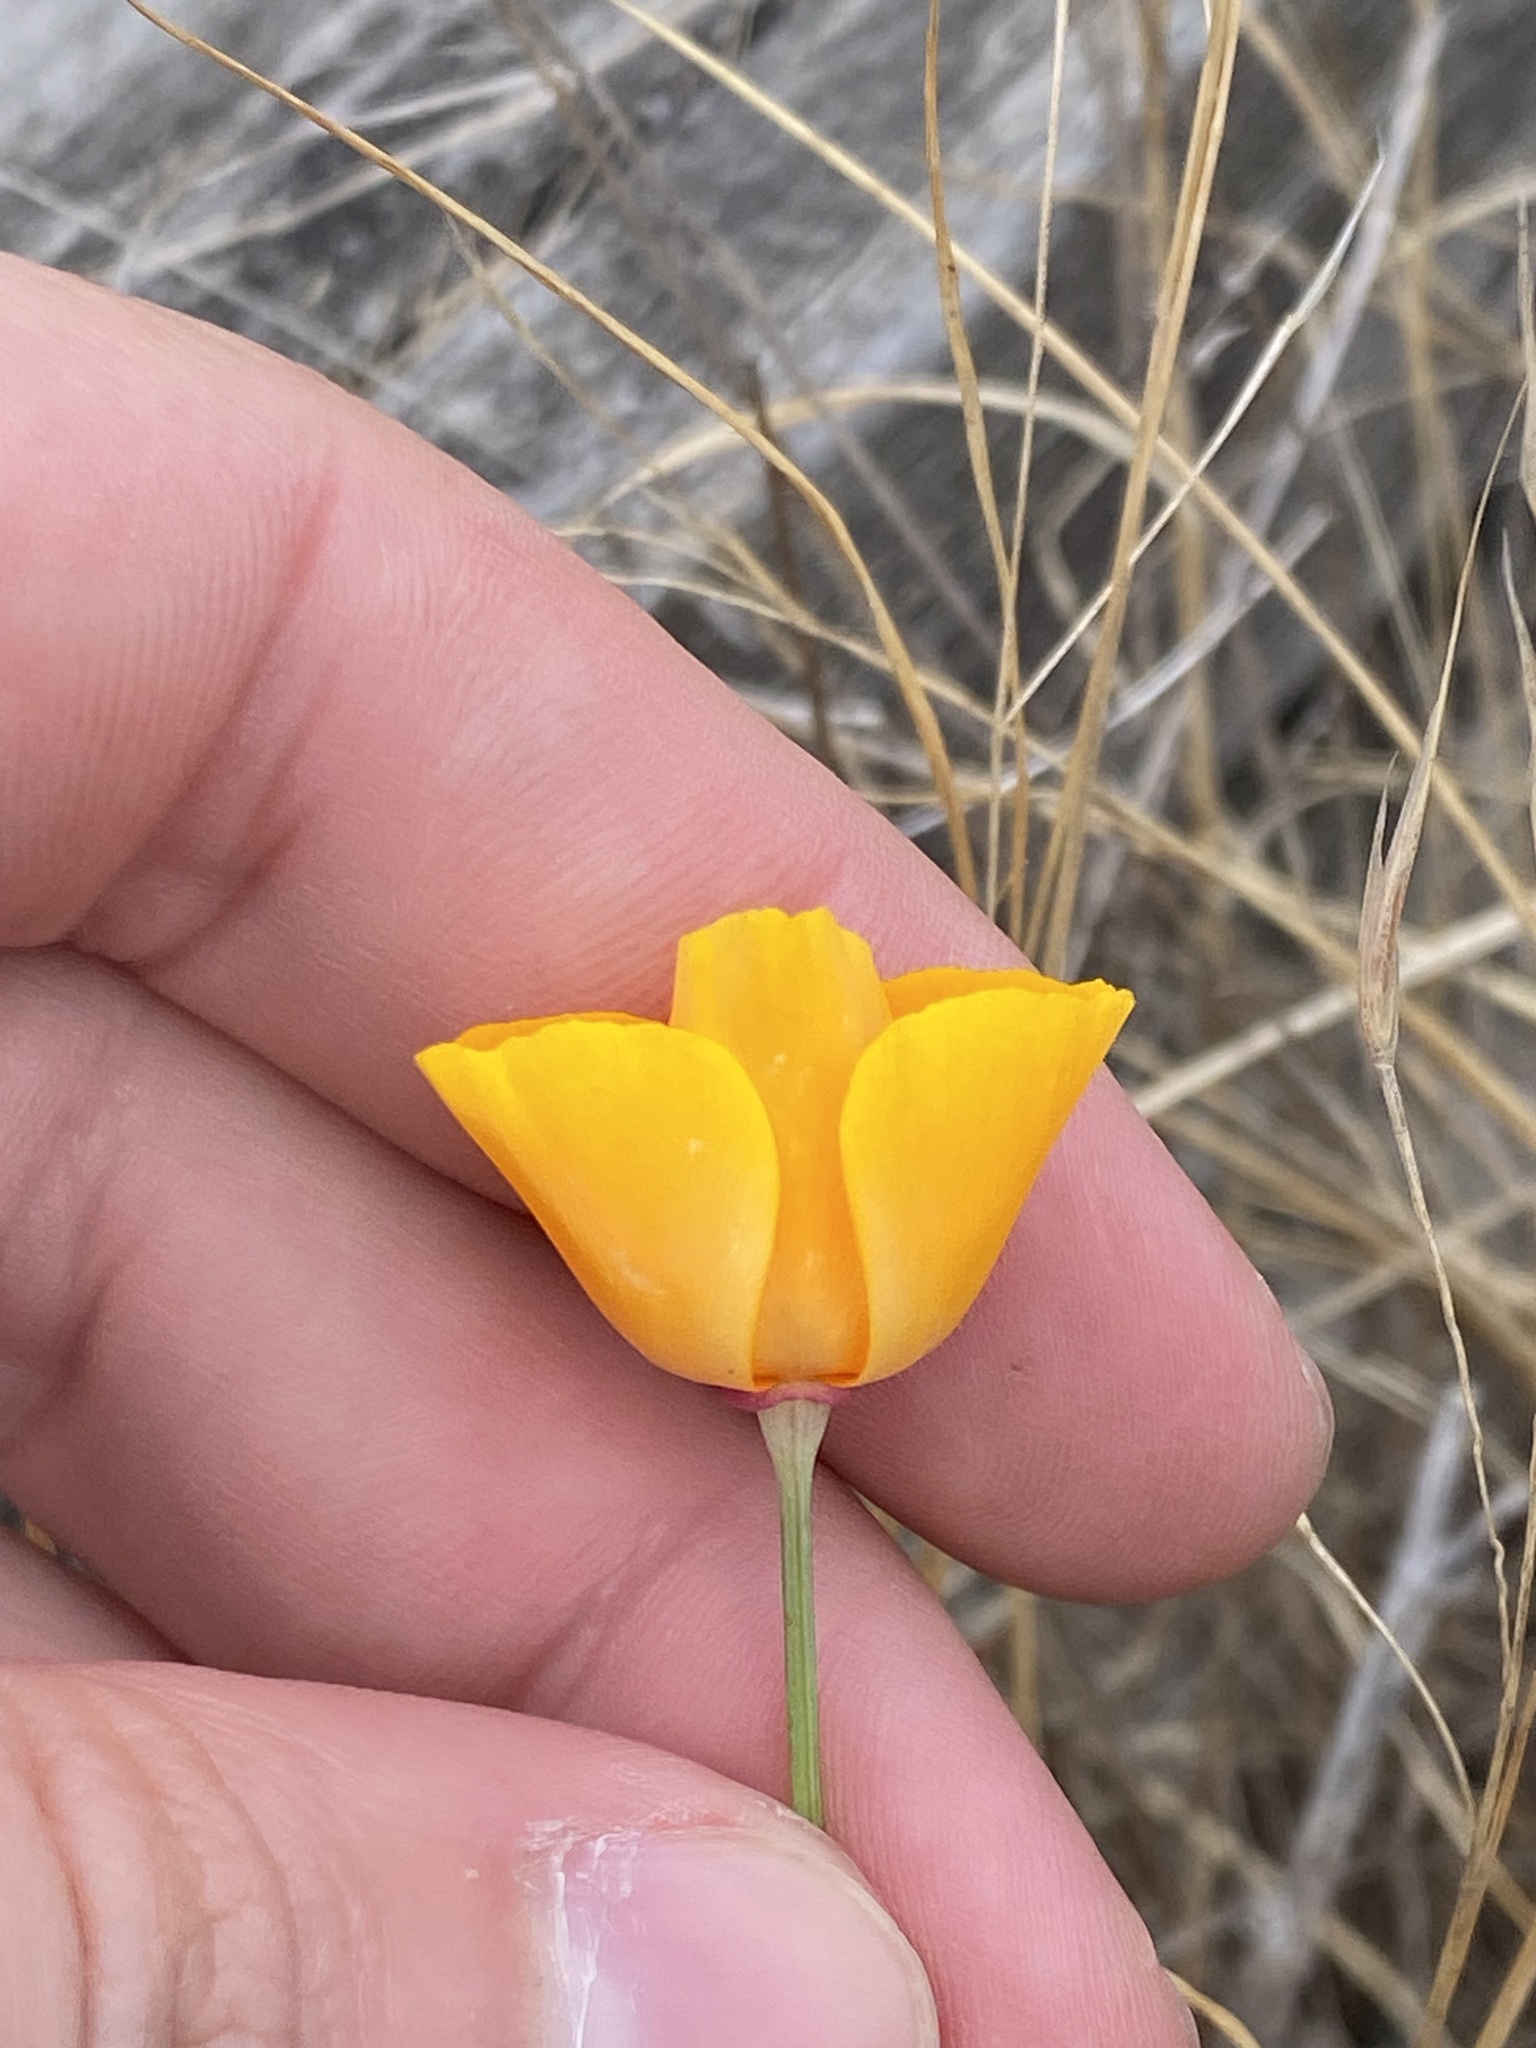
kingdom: Plantae
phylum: Tracheophyta
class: Magnoliopsida
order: Ranunculales
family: Papaveraceae
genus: Eschscholzia
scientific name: Eschscholzia californica
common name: California poppy
